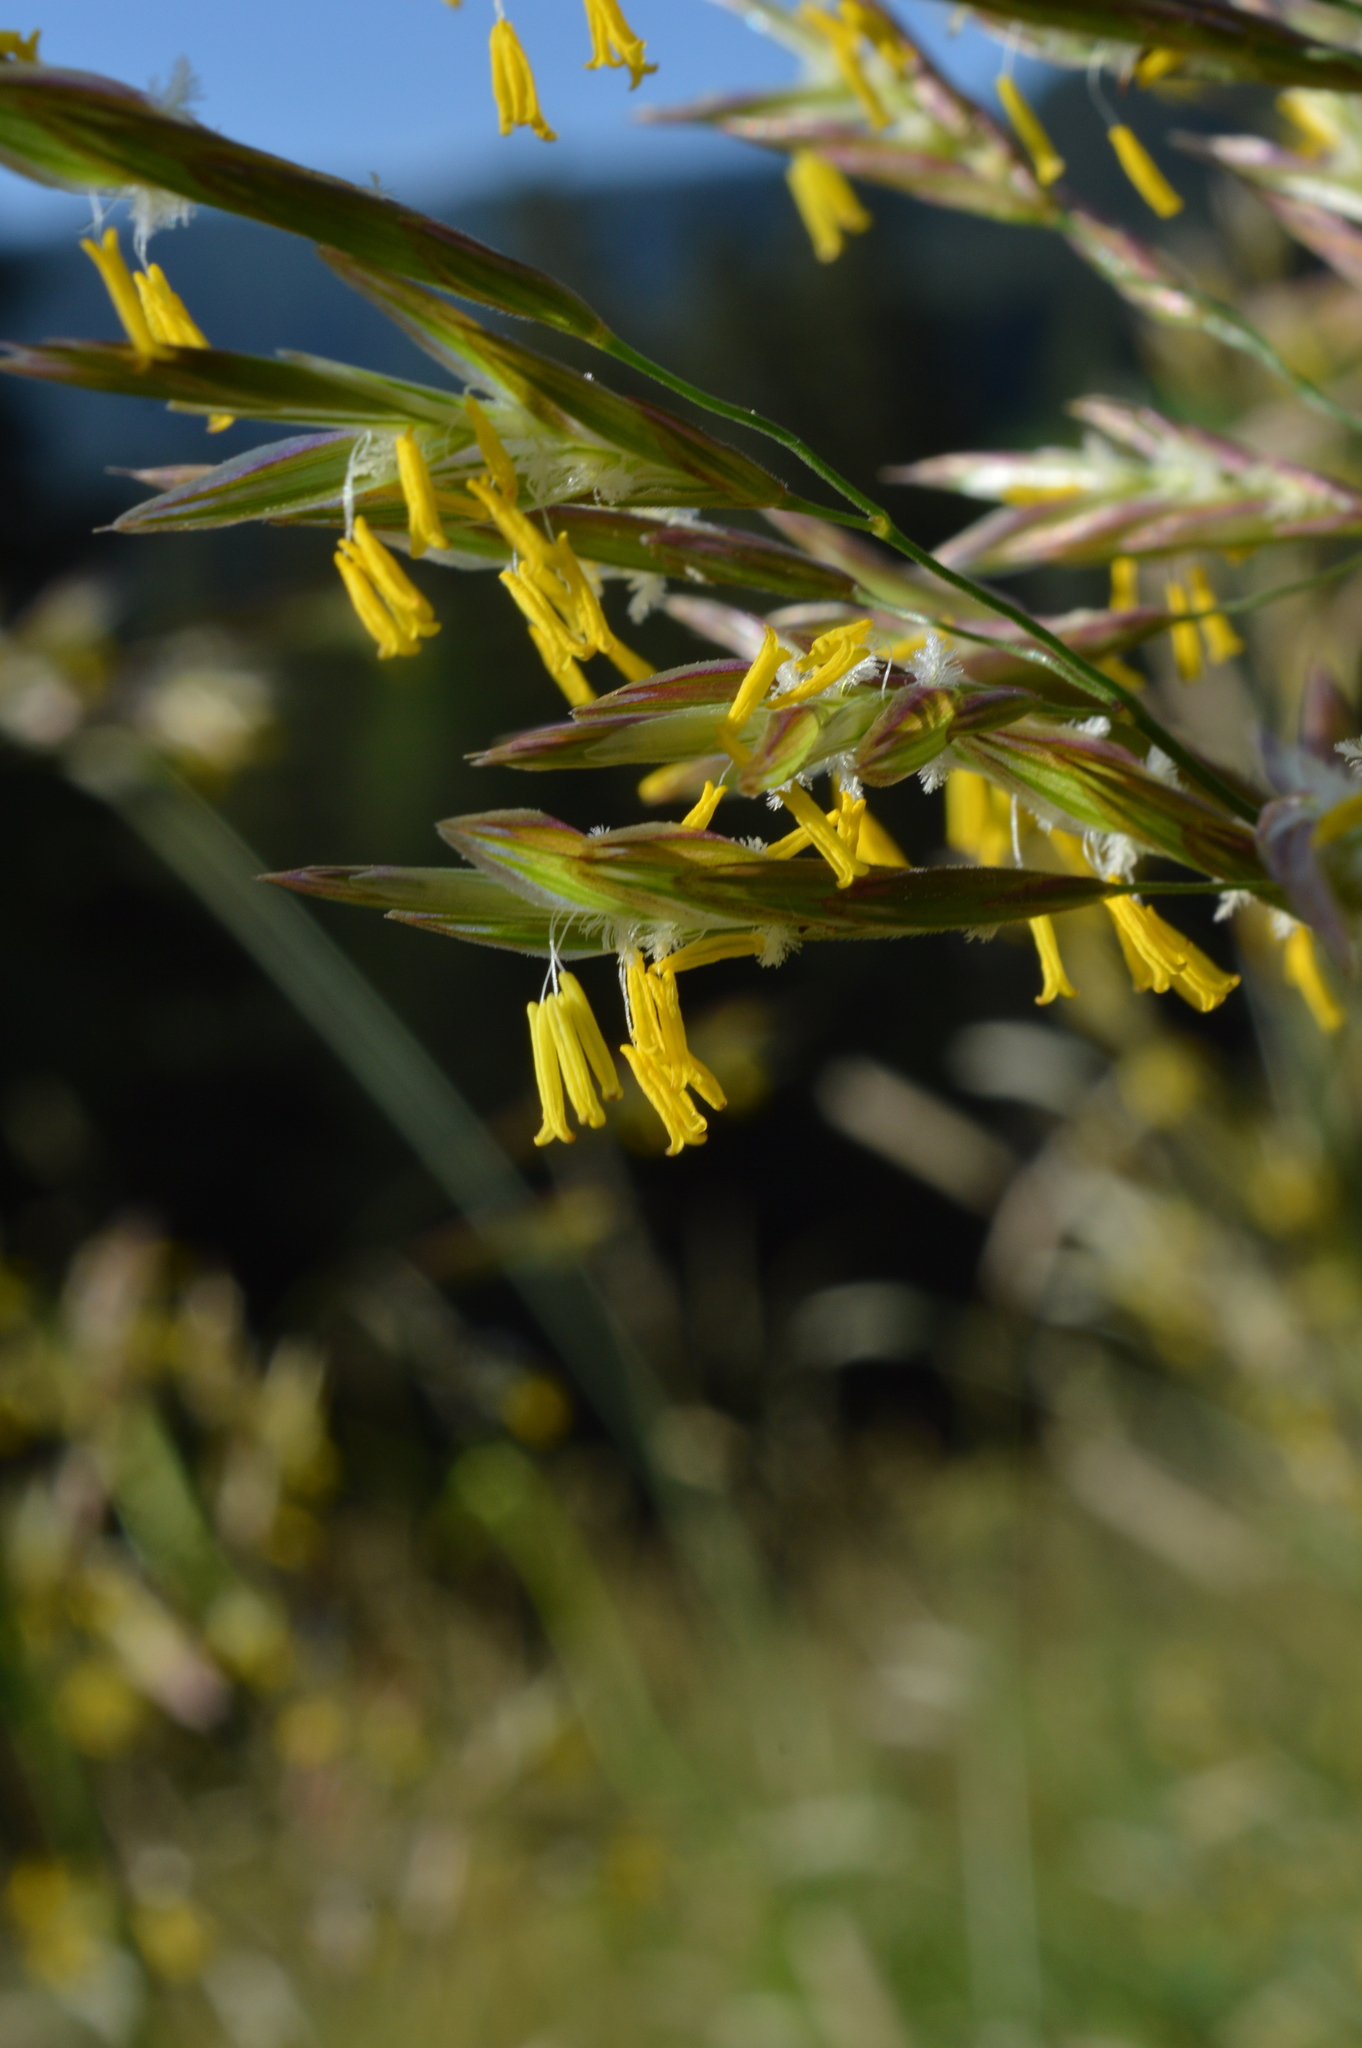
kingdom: Plantae
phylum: Tracheophyta
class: Liliopsida
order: Poales
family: Poaceae
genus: Bromus
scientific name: Bromus erectus
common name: Erect brome
